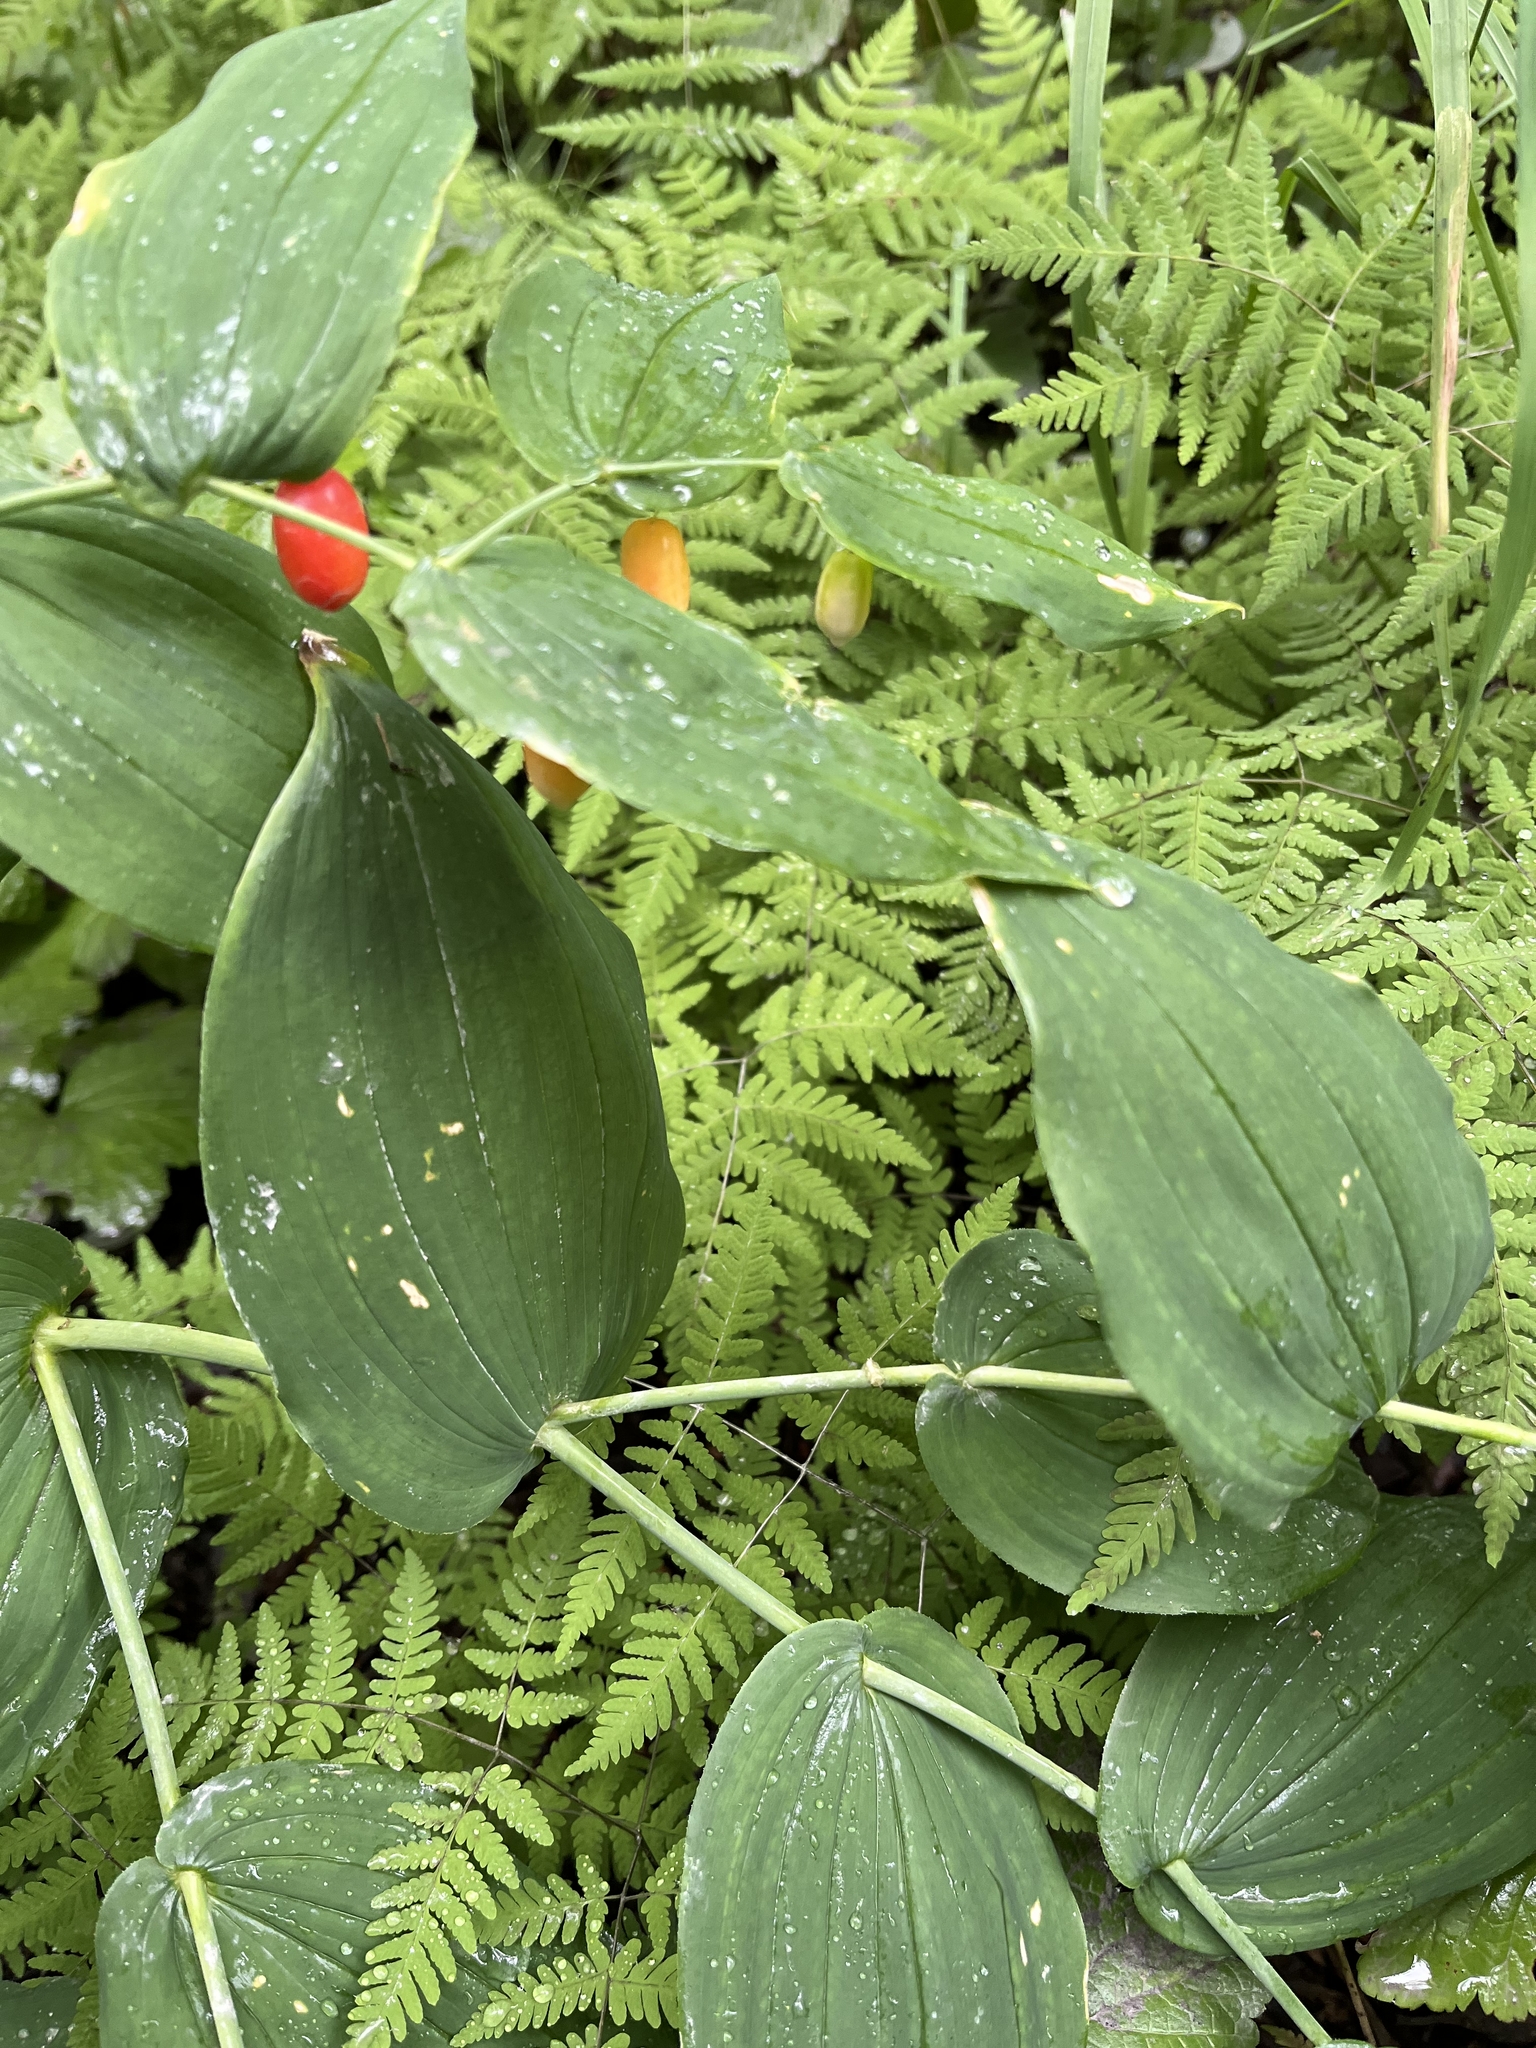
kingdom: Plantae
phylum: Tracheophyta
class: Liliopsida
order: Liliales
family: Liliaceae
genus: Streptopus
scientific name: Streptopus amplexifolius
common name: Clasp twisted stalk
